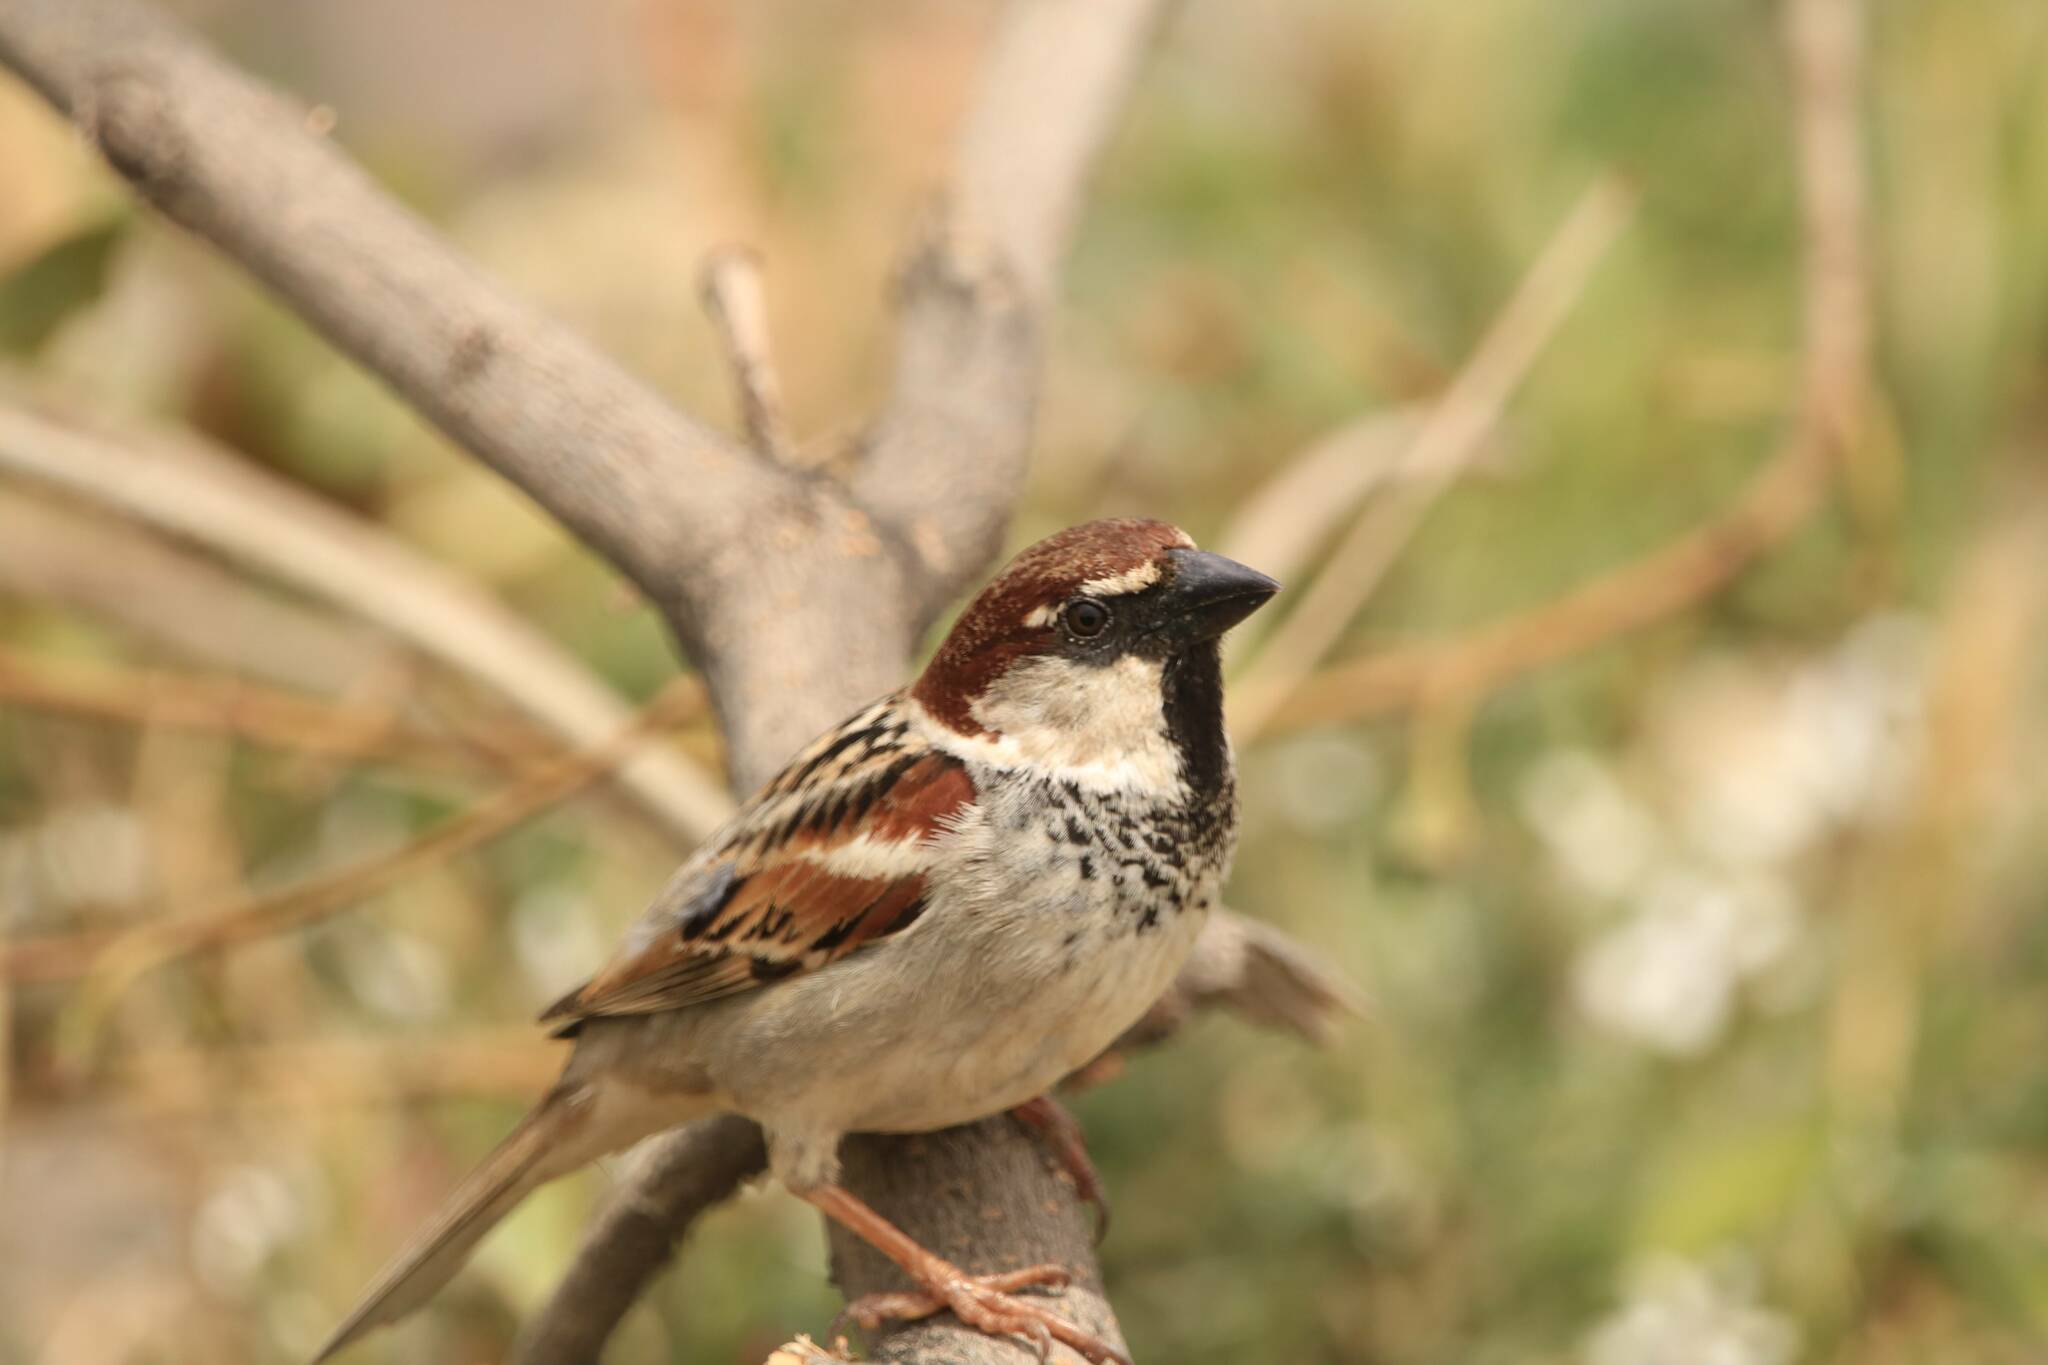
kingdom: Animalia
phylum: Chordata
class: Aves
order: Passeriformes
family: Passeridae
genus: Passer
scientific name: Passer domesticus
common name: House sparrow
